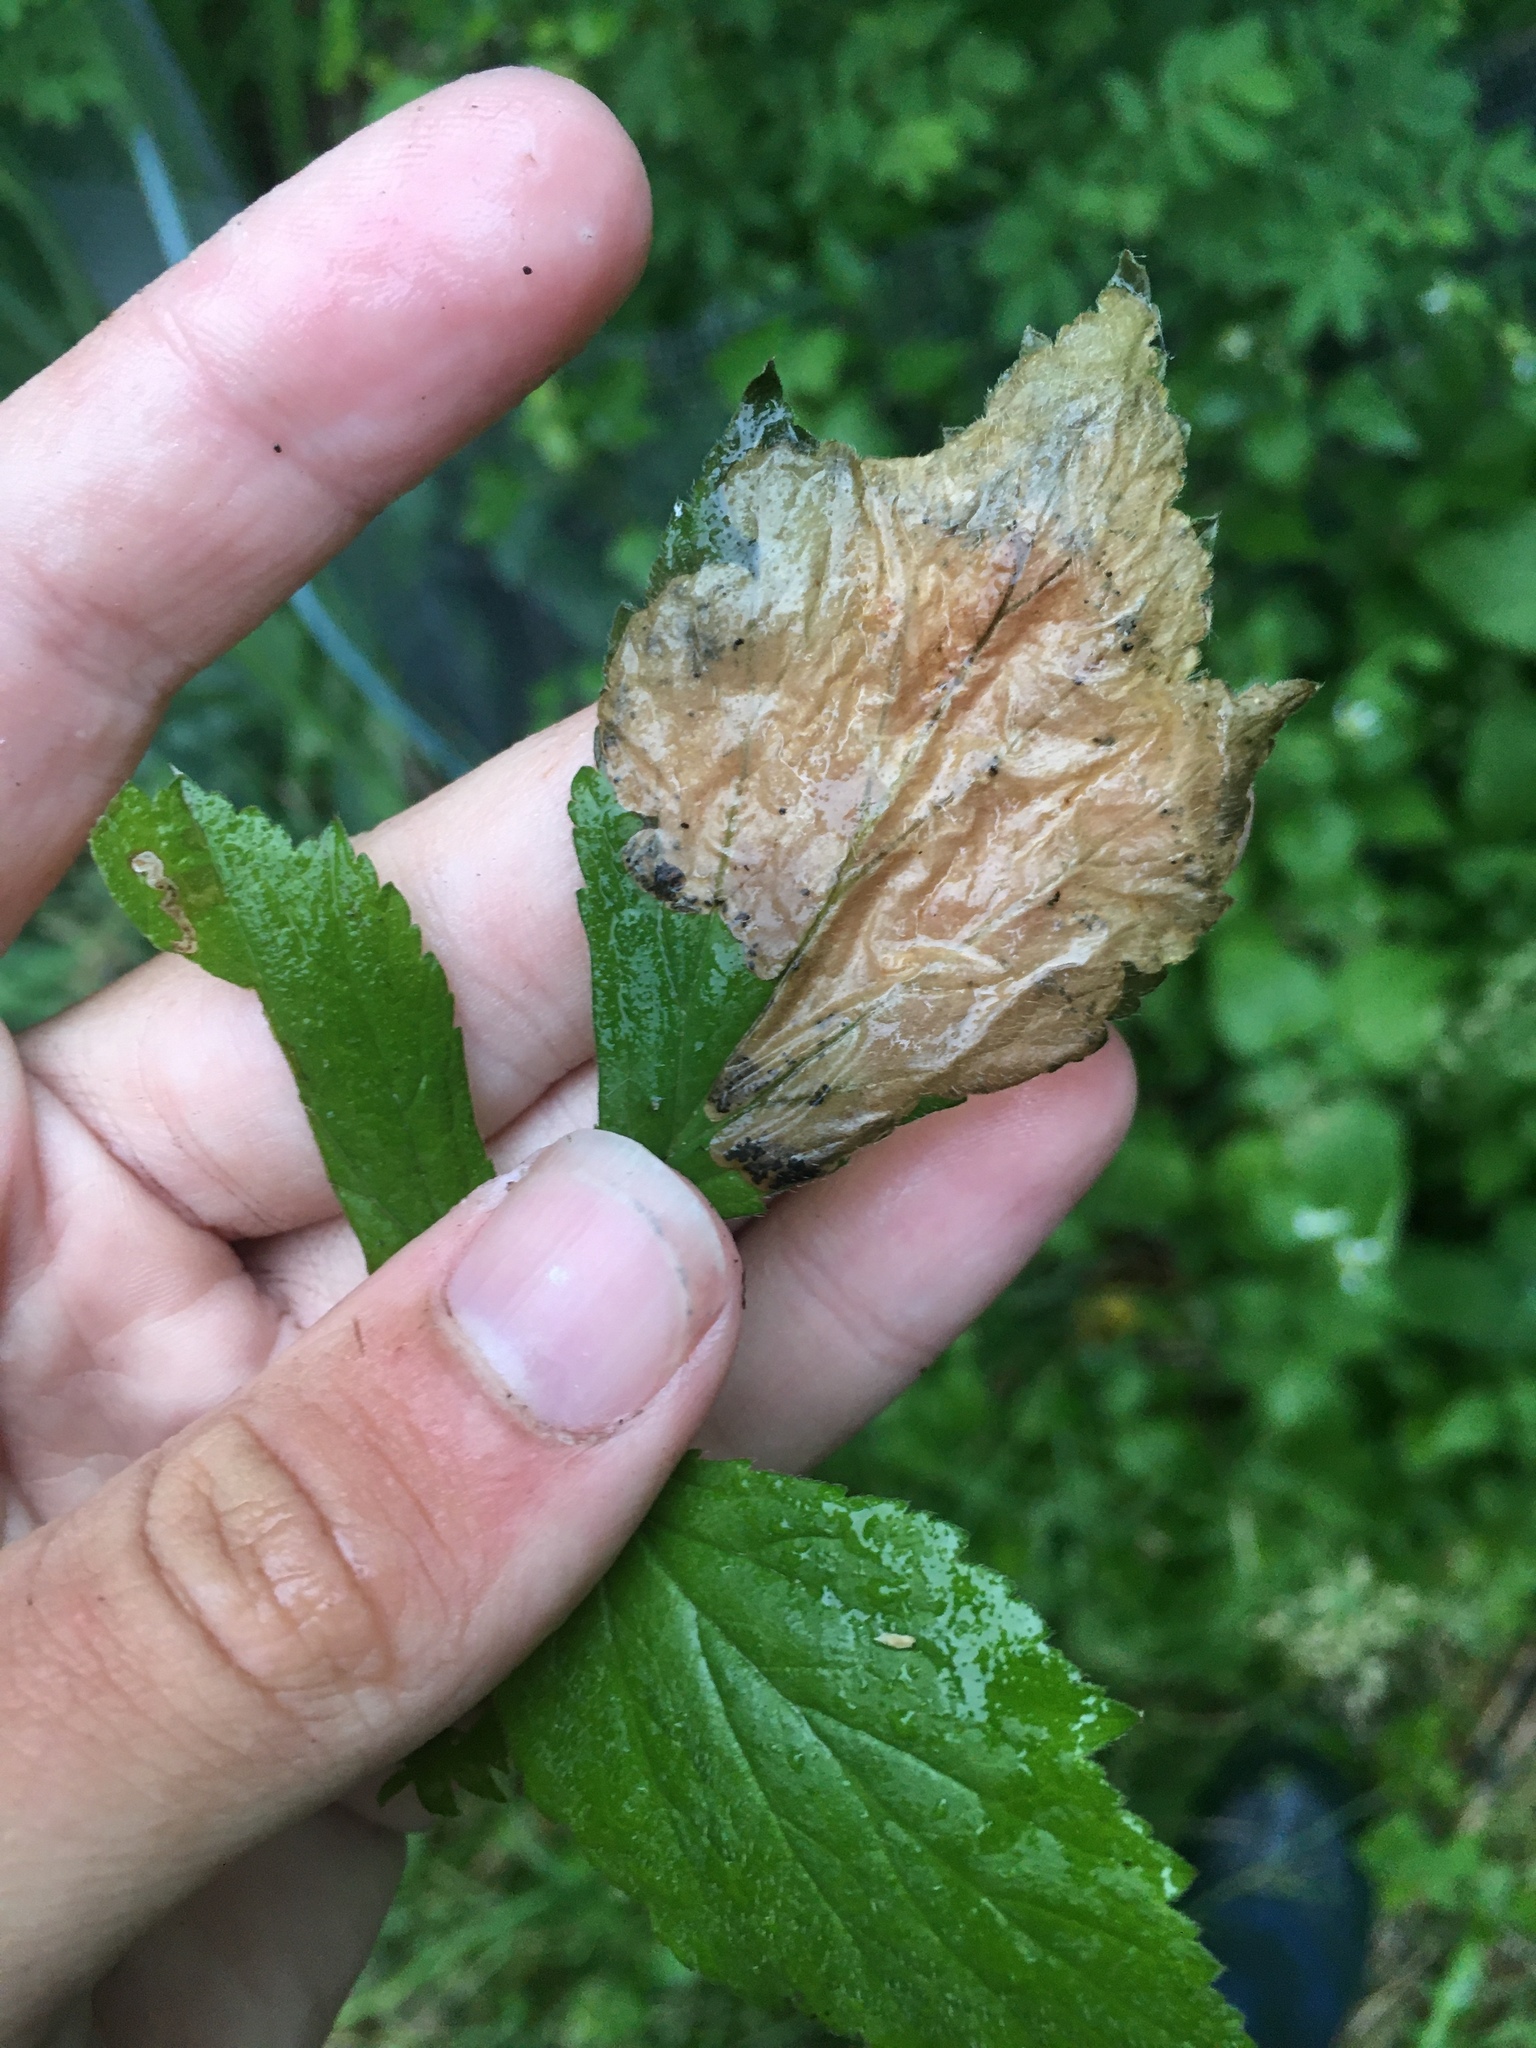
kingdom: Animalia
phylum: Arthropoda
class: Insecta
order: Hymenoptera
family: Tenthredinidae
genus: Metallus
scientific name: Metallus lanceolatus
